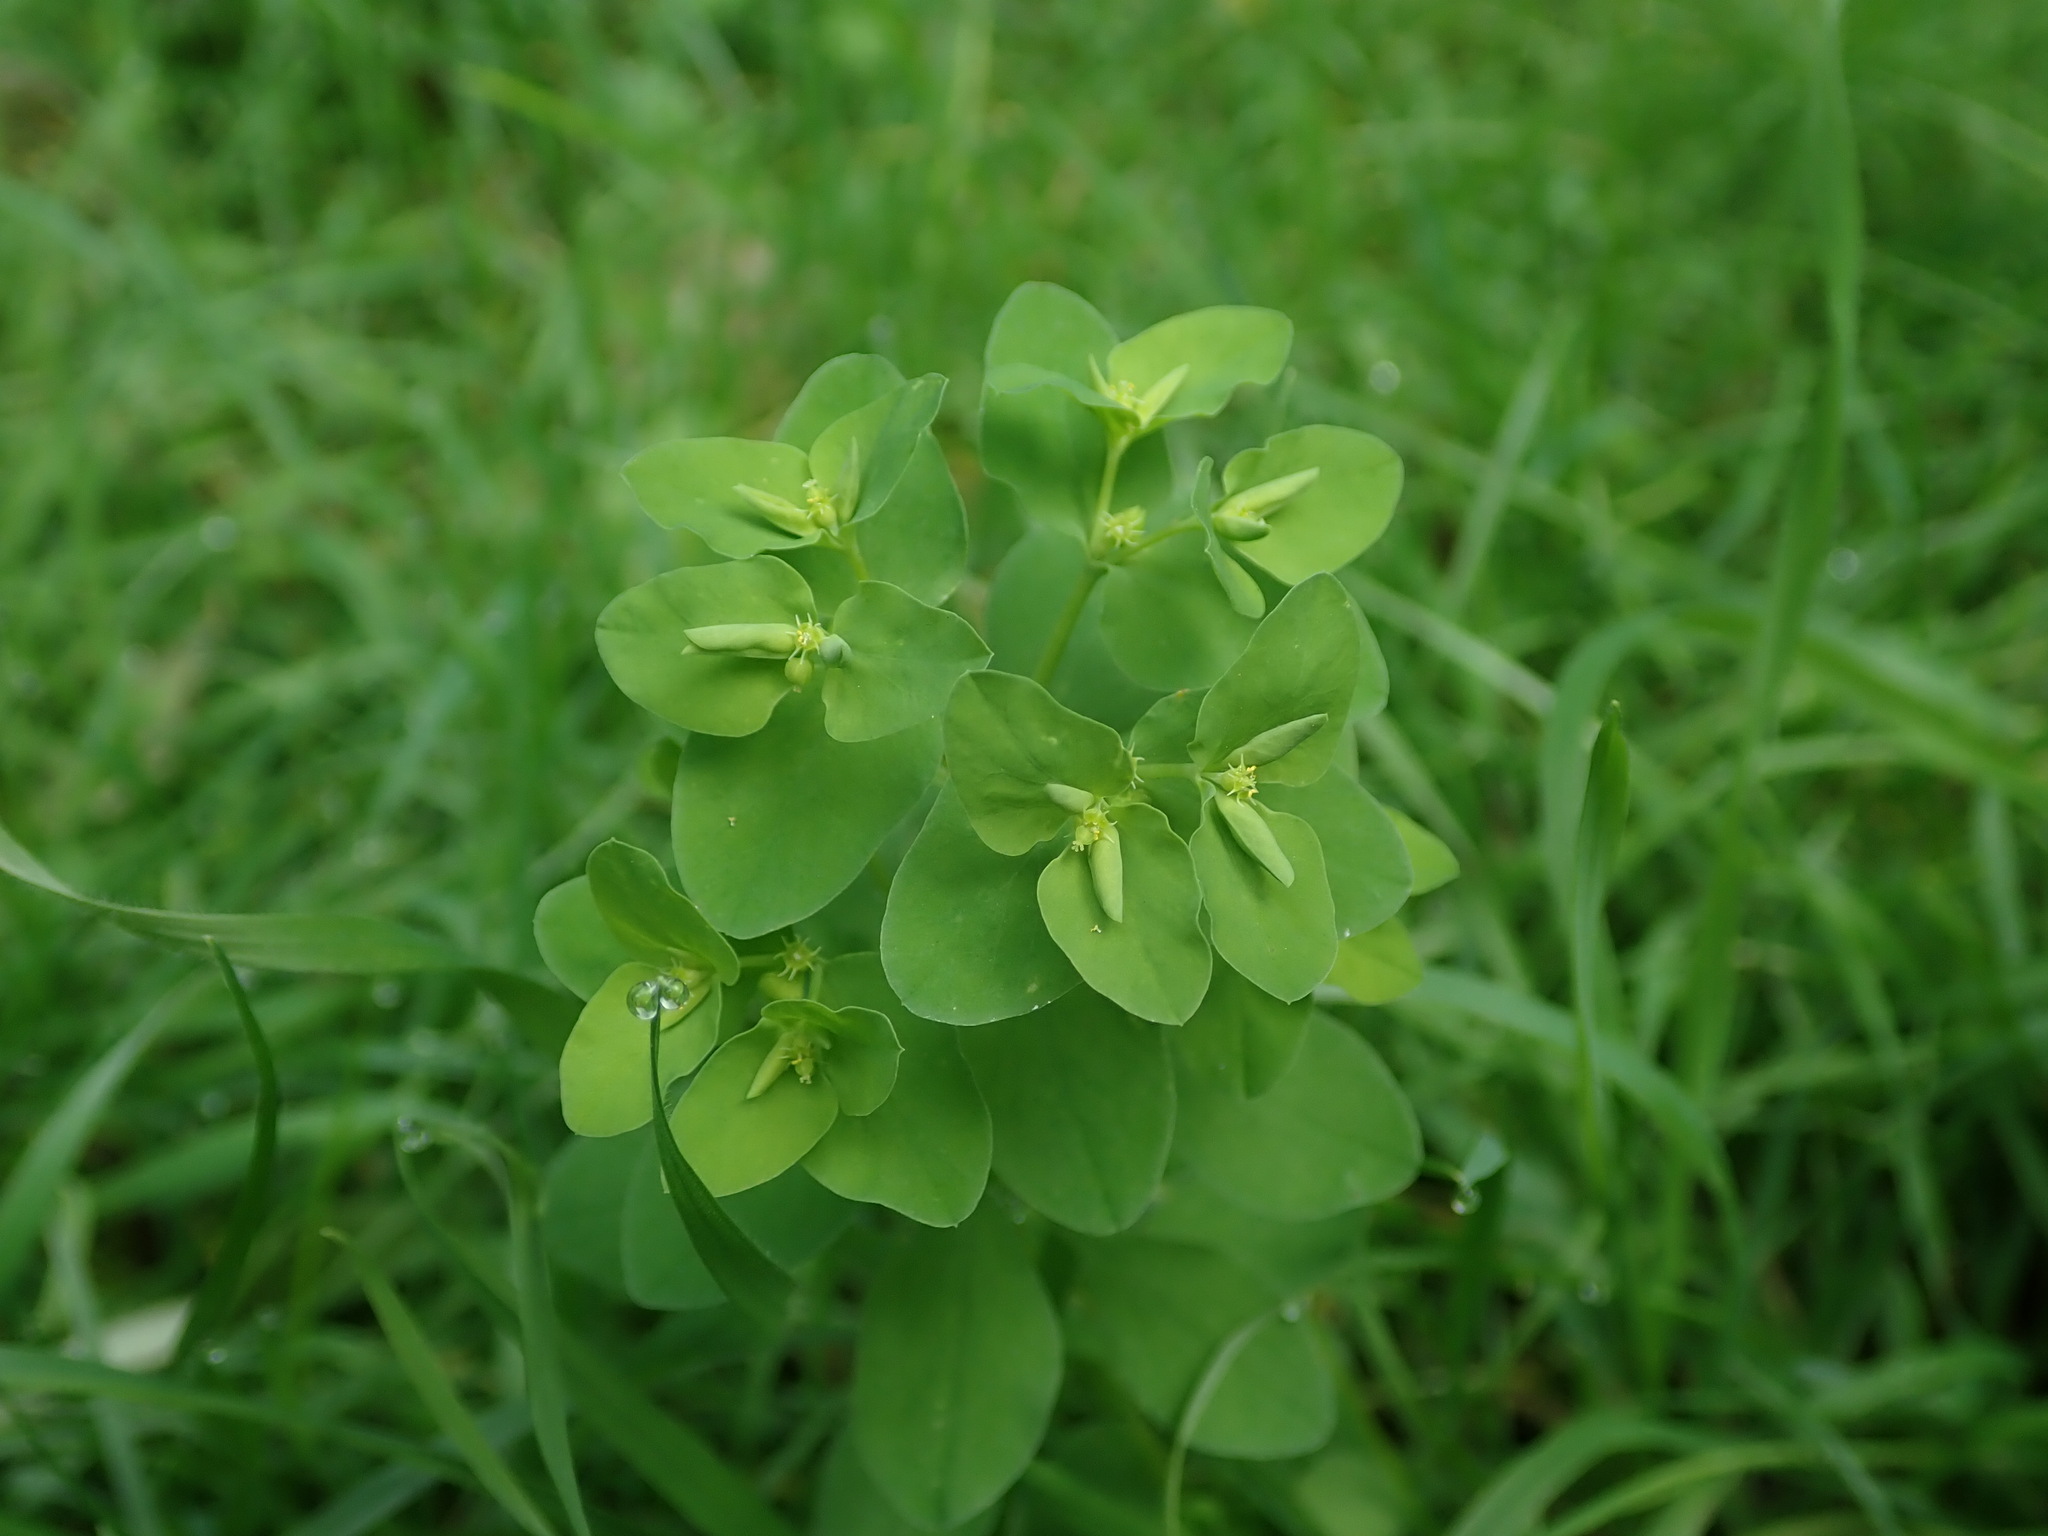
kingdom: Plantae
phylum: Tracheophyta
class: Magnoliopsida
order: Malpighiales
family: Euphorbiaceae
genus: Euphorbia
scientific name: Euphorbia peplus
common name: Petty spurge
